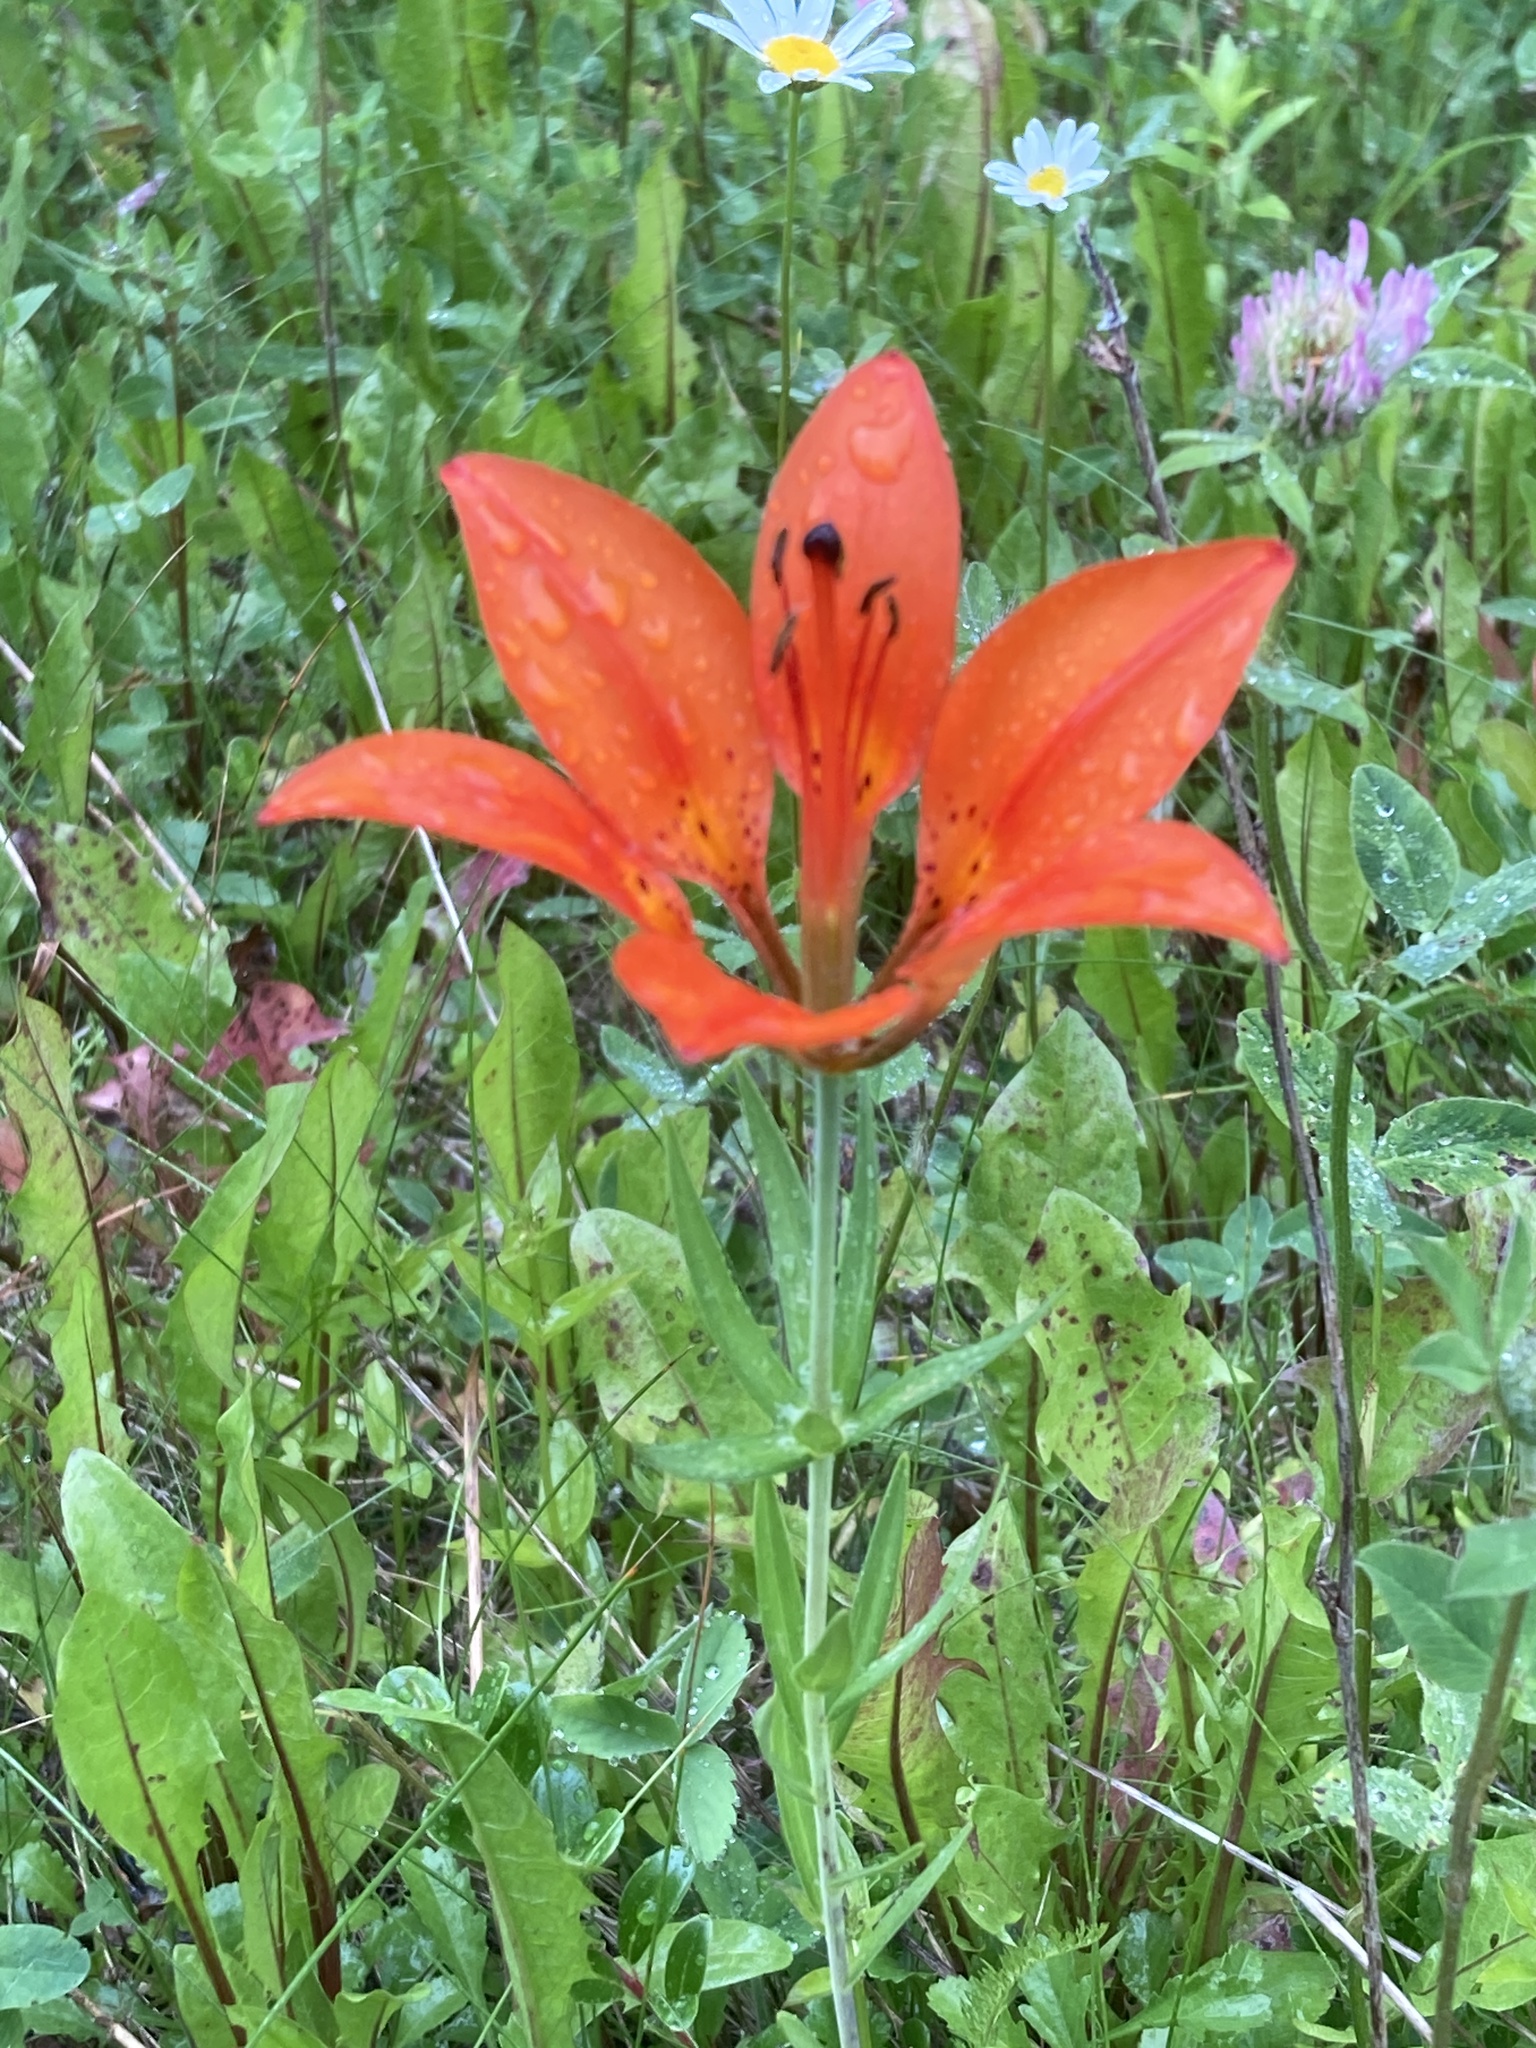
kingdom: Plantae
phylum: Tracheophyta
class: Liliopsida
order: Liliales
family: Liliaceae
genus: Lilium
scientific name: Lilium philadelphicum
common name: Red lily
